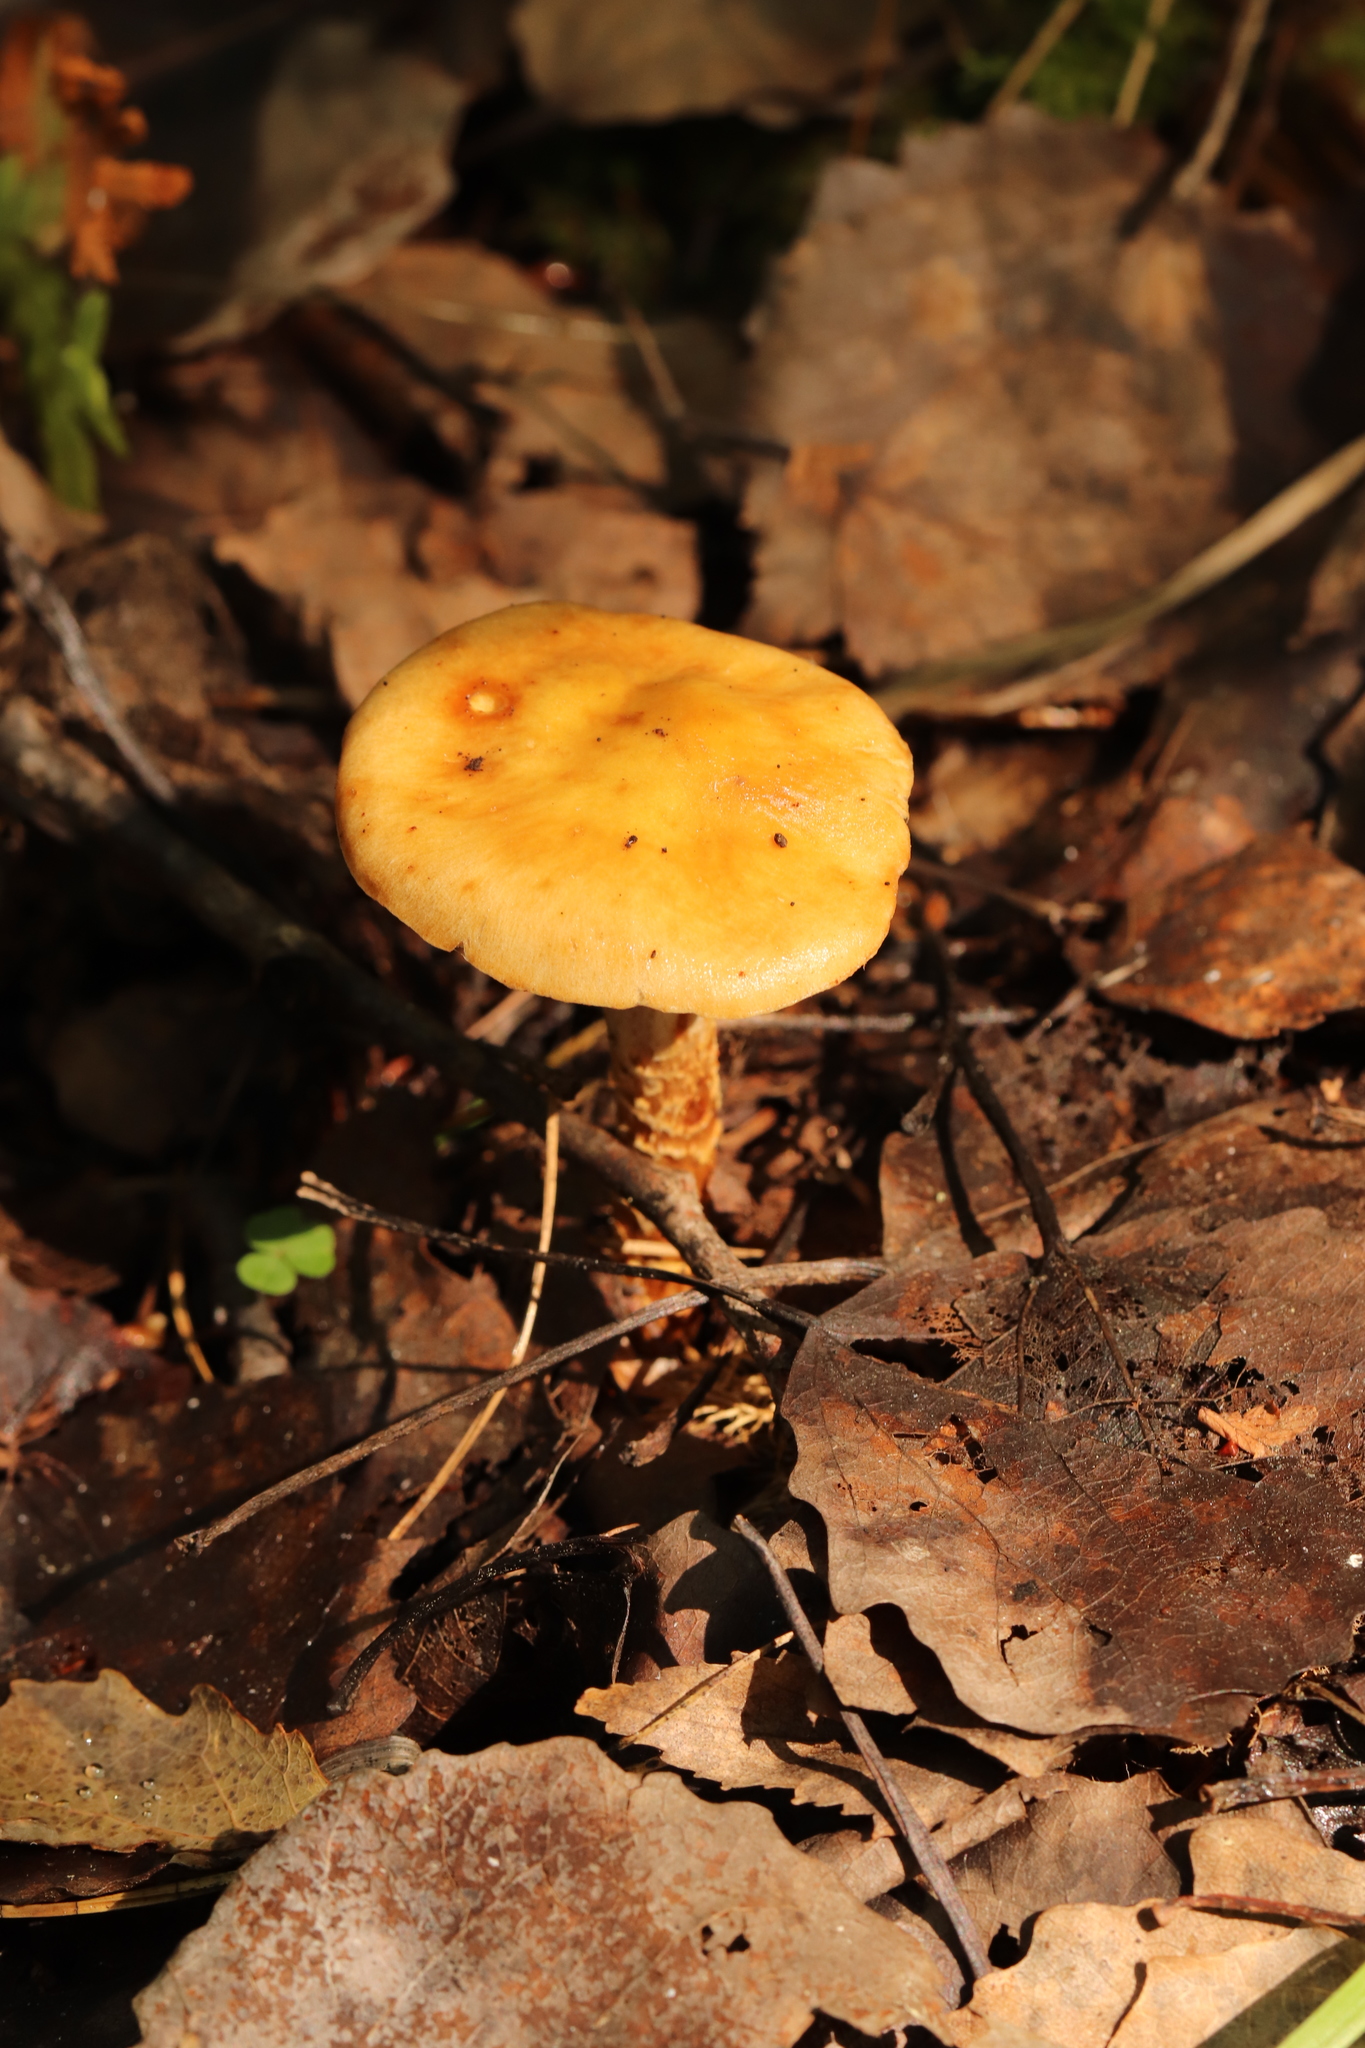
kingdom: Fungi
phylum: Basidiomycota
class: Agaricomycetes
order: Agaricales
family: Cortinariaceae
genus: Cortinarius
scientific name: Cortinarius trivialis
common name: Girdled webcap
